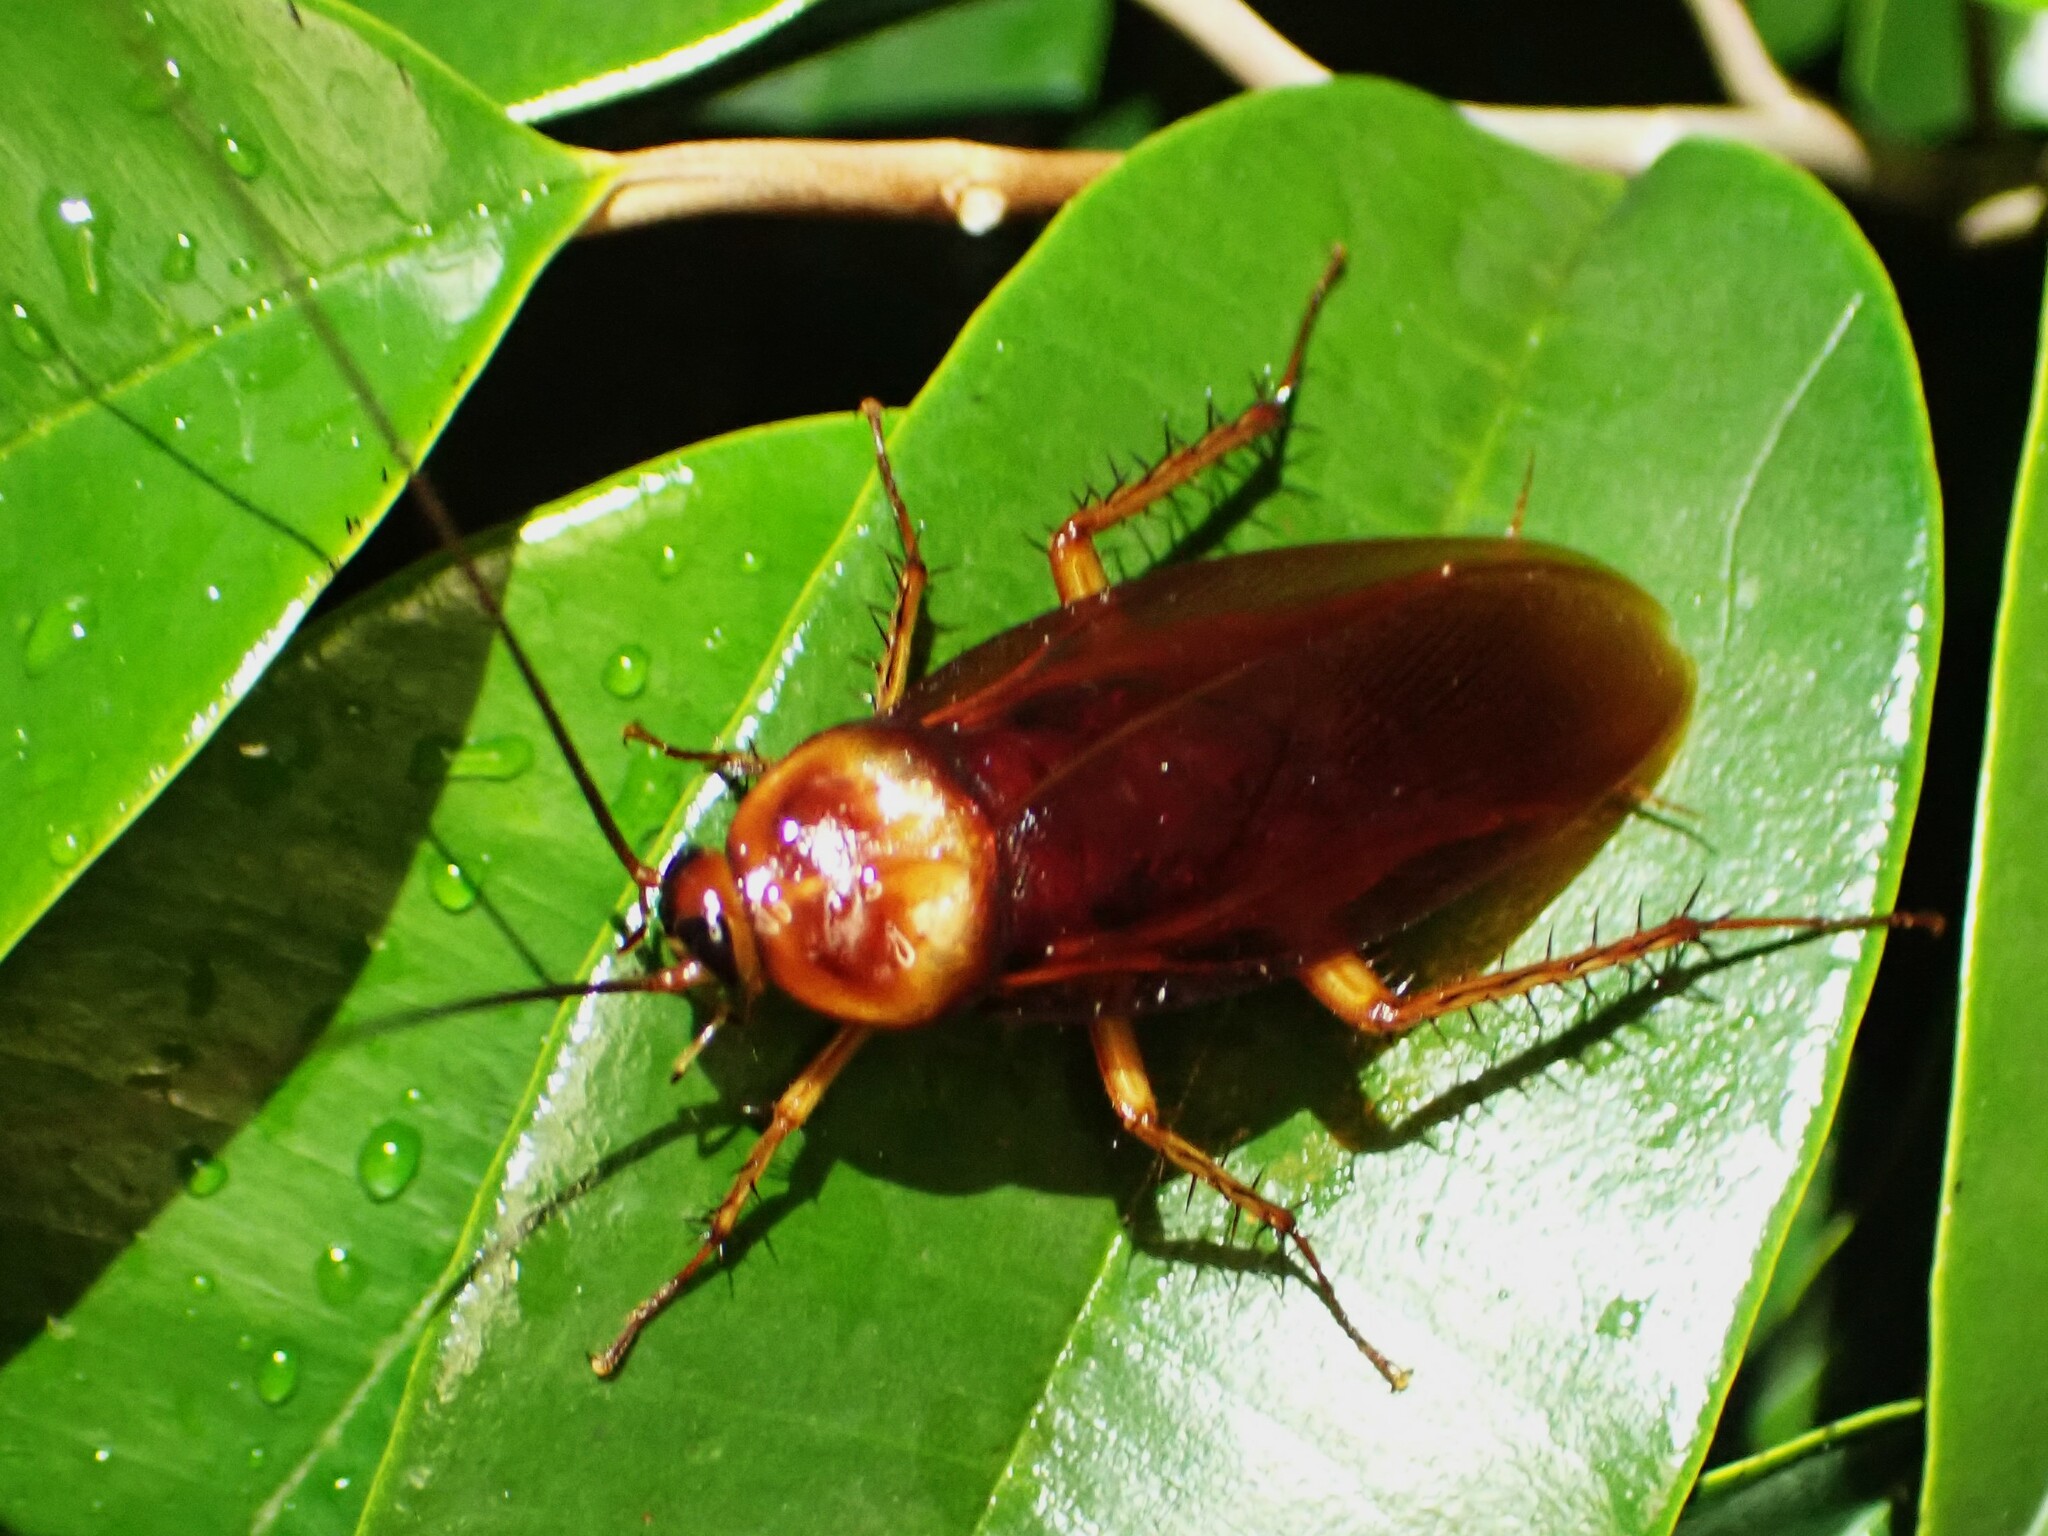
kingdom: Animalia
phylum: Arthropoda
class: Insecta
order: Blattodea
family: Blattidae
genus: Periplaneta
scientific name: Periplaneta americana
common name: American cockroach
